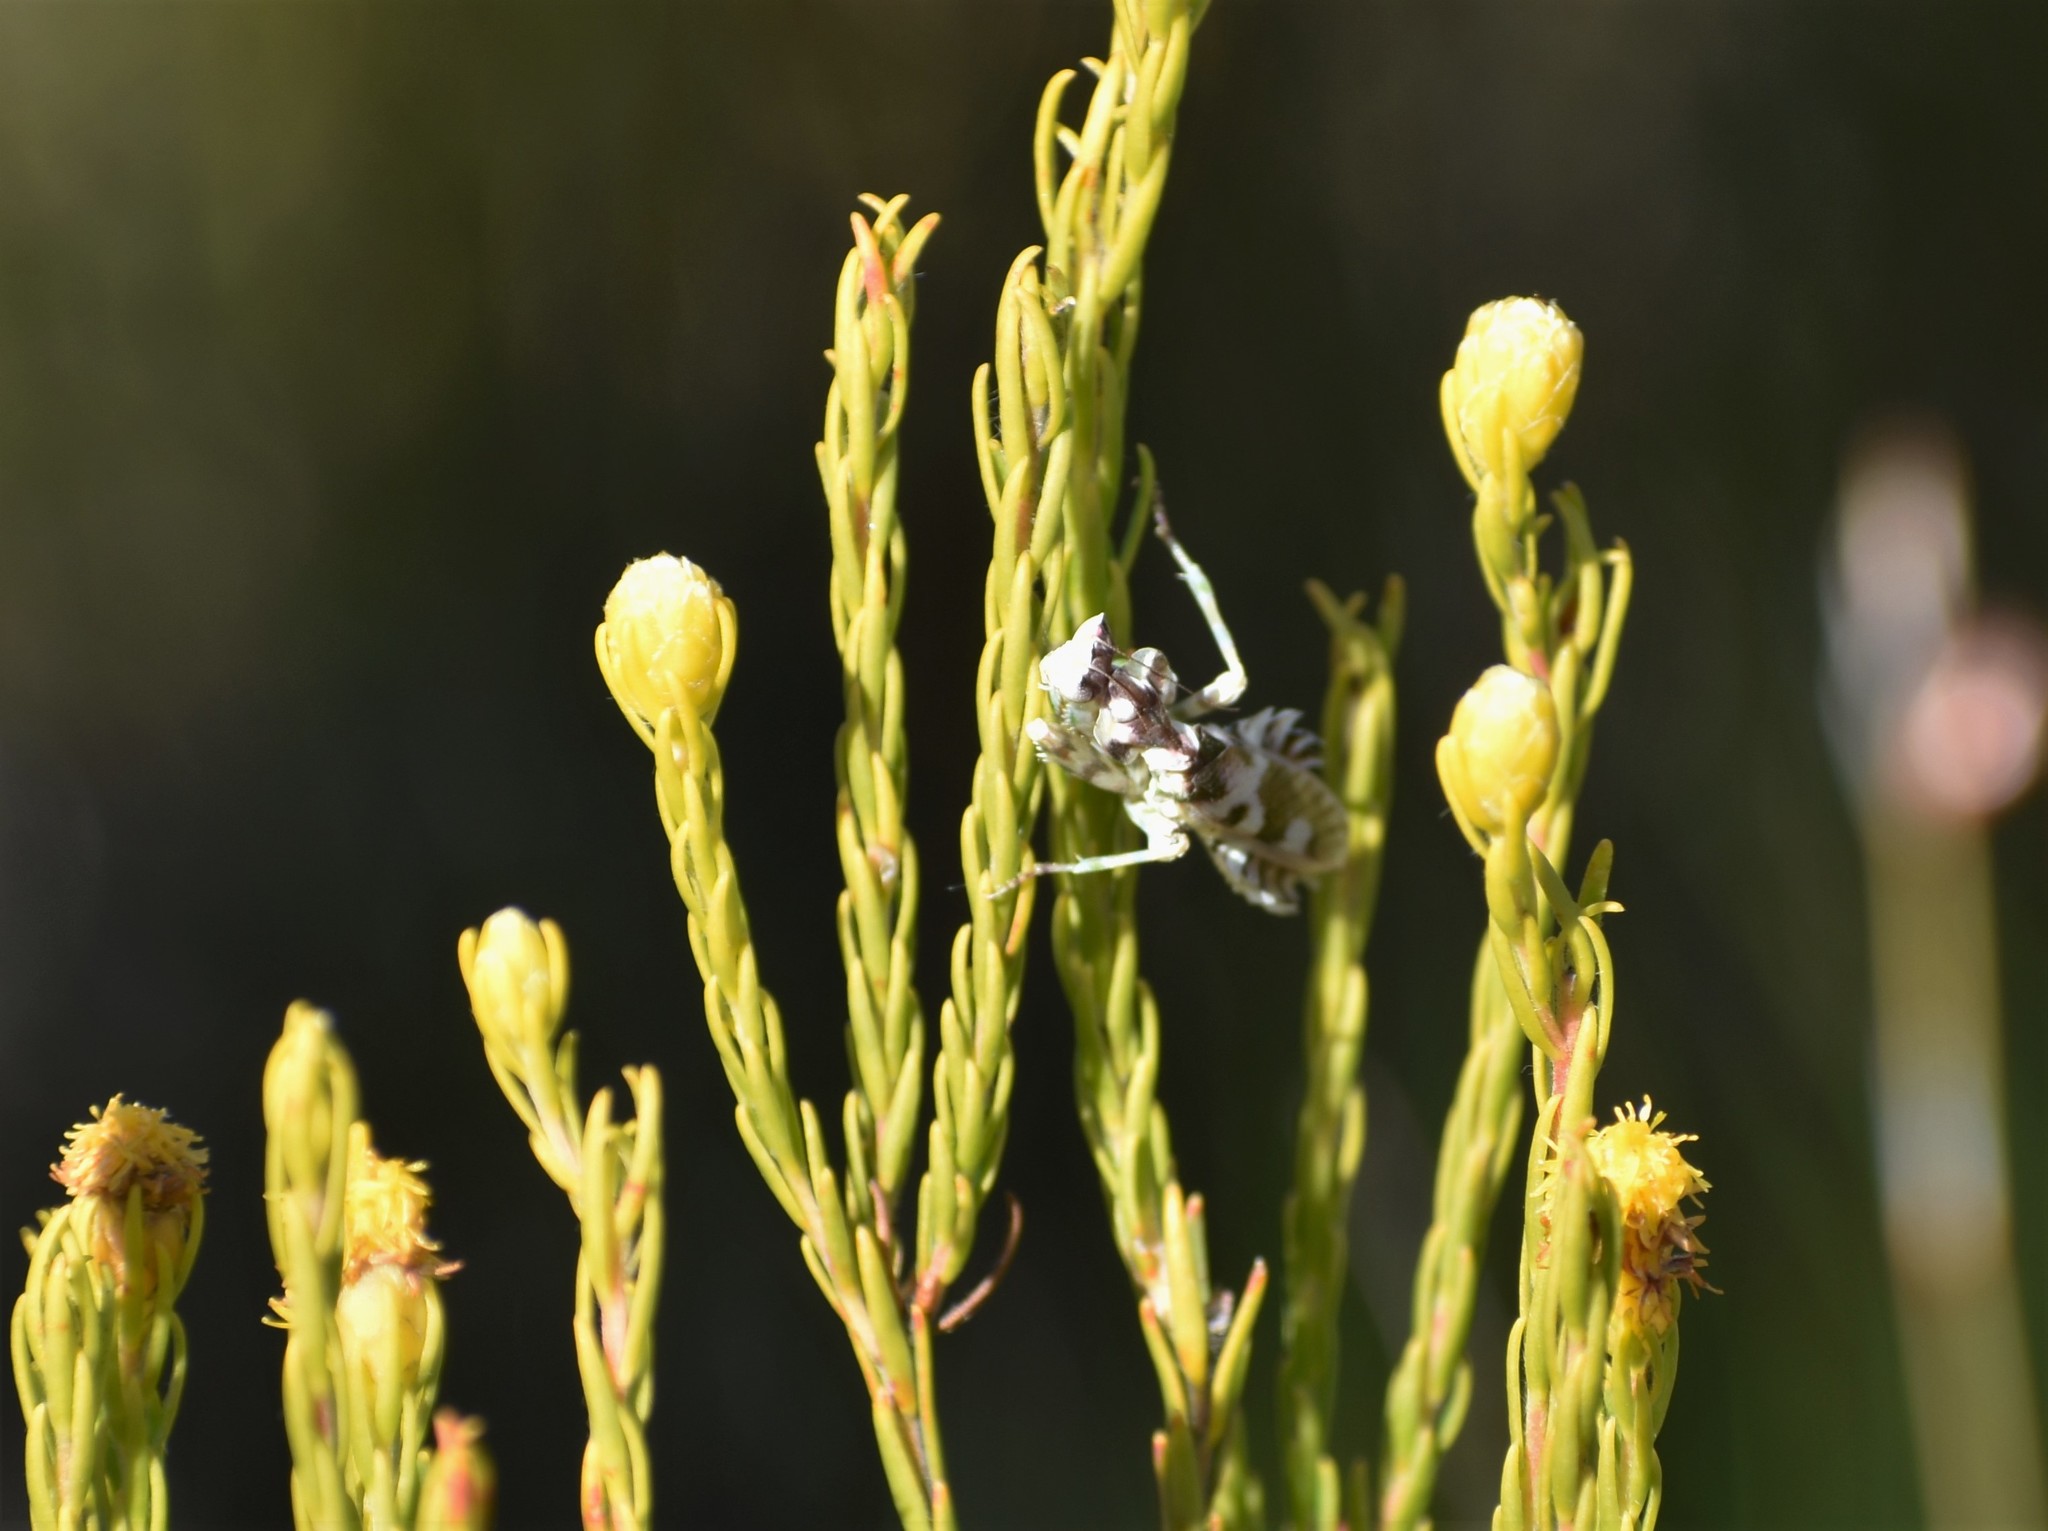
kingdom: Animalia
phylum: Arthropoda
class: Insecta
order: Mantodea
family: Galinthiadidae
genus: Harpagomantis
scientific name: Harpagomantis tricolor
